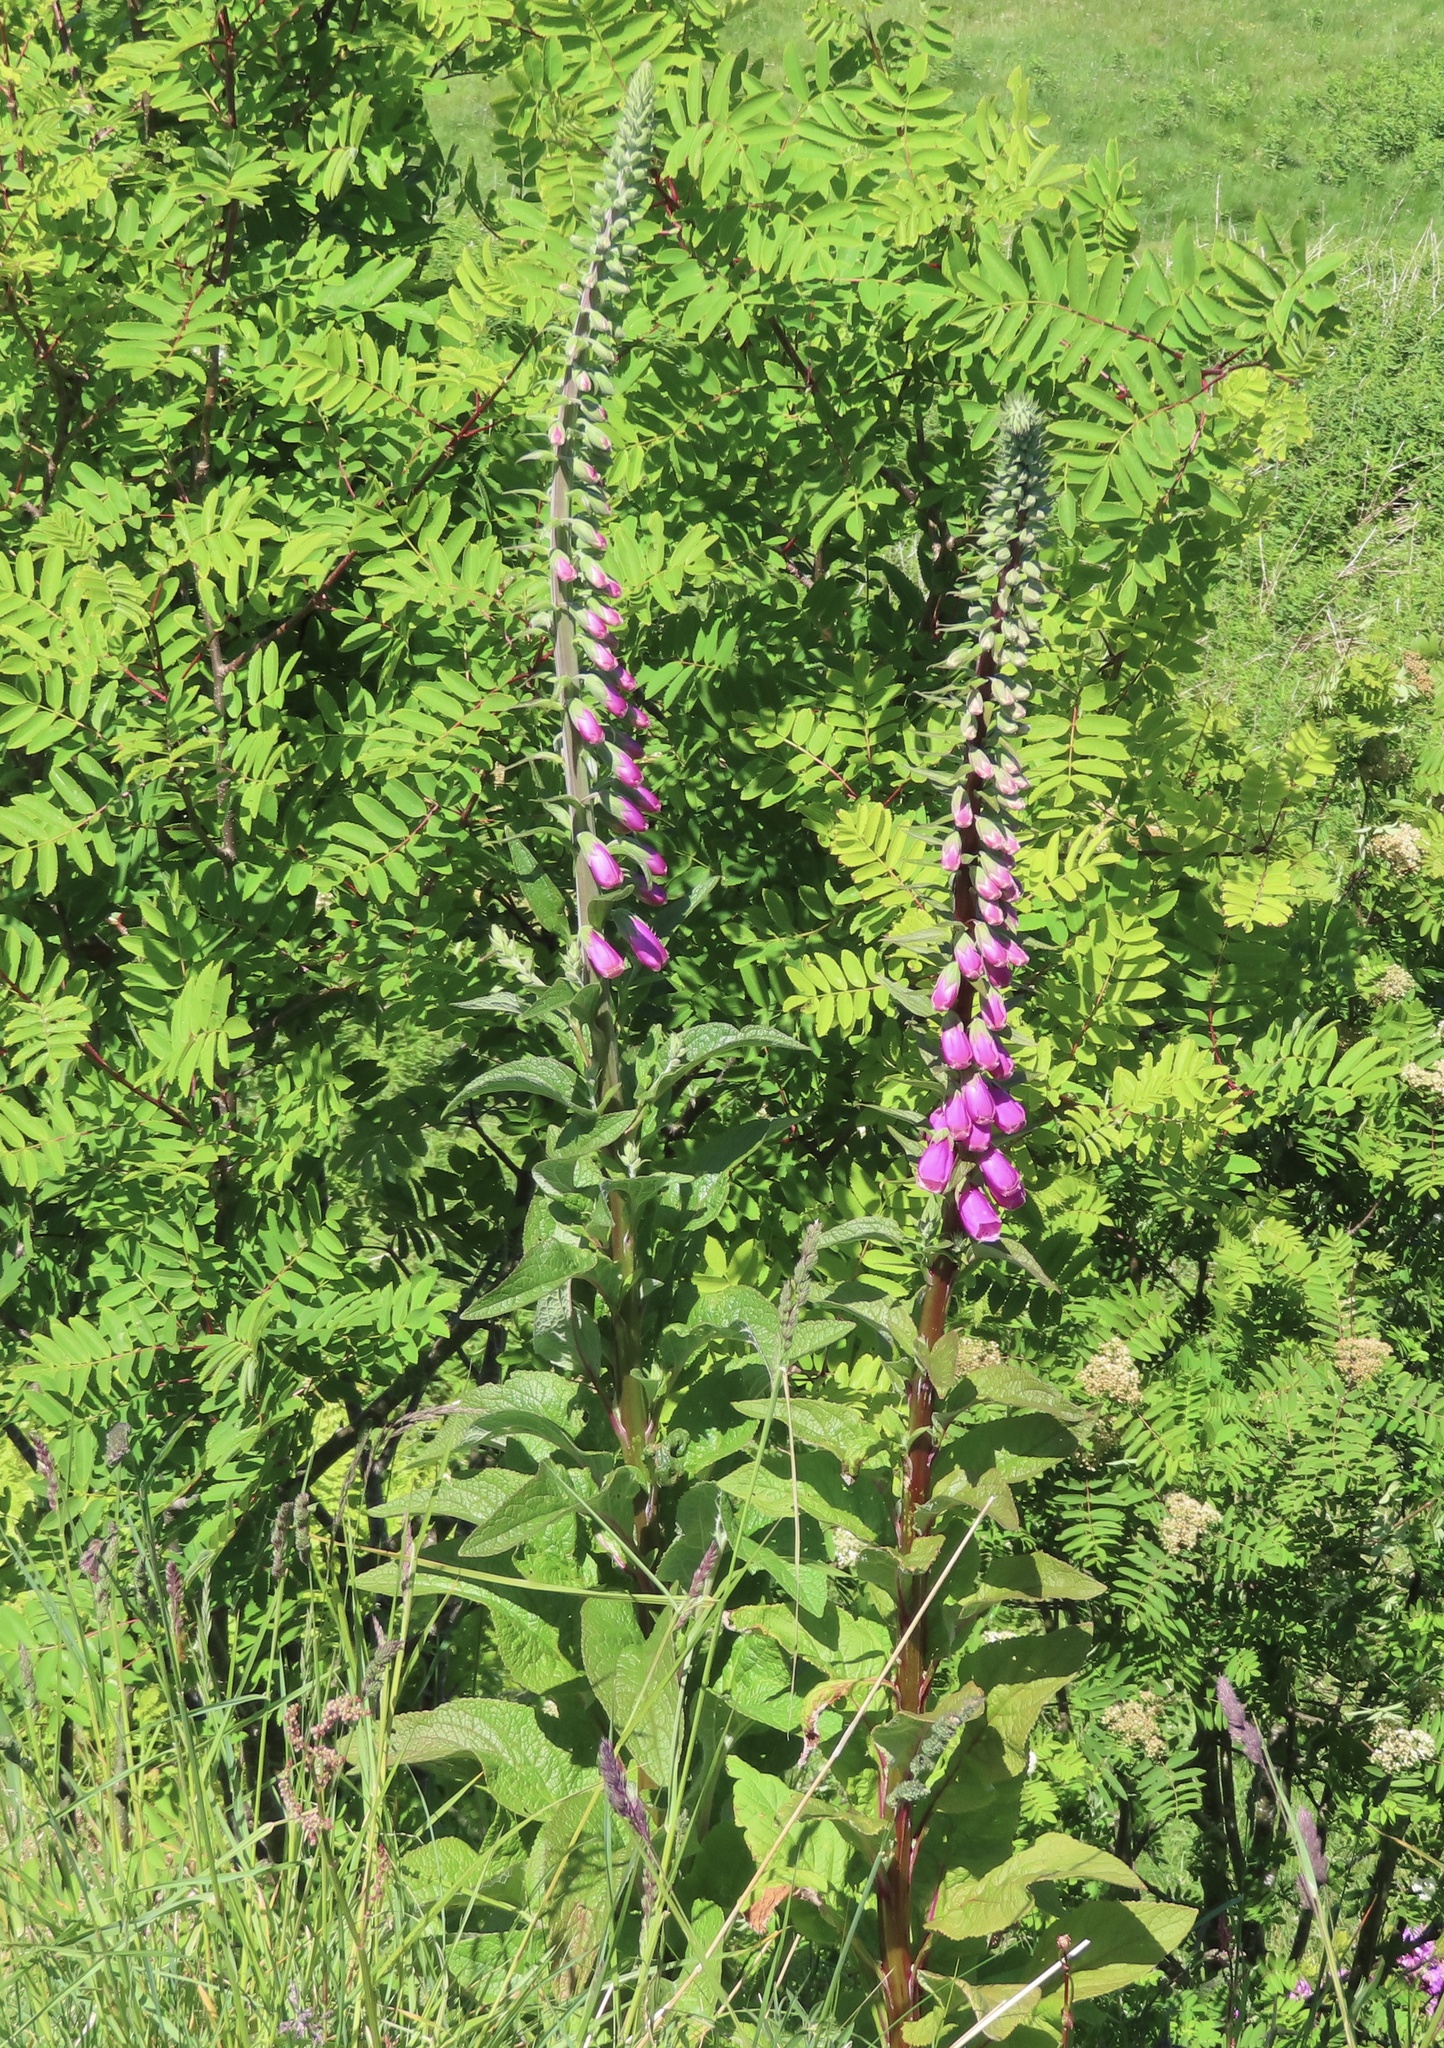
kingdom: Plantae
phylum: Tracheophyta
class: Magnoliopsida
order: Lamiales
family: Plantaginaceae
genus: Digitalis
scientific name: Digitalis purpurea
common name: Foxglove
